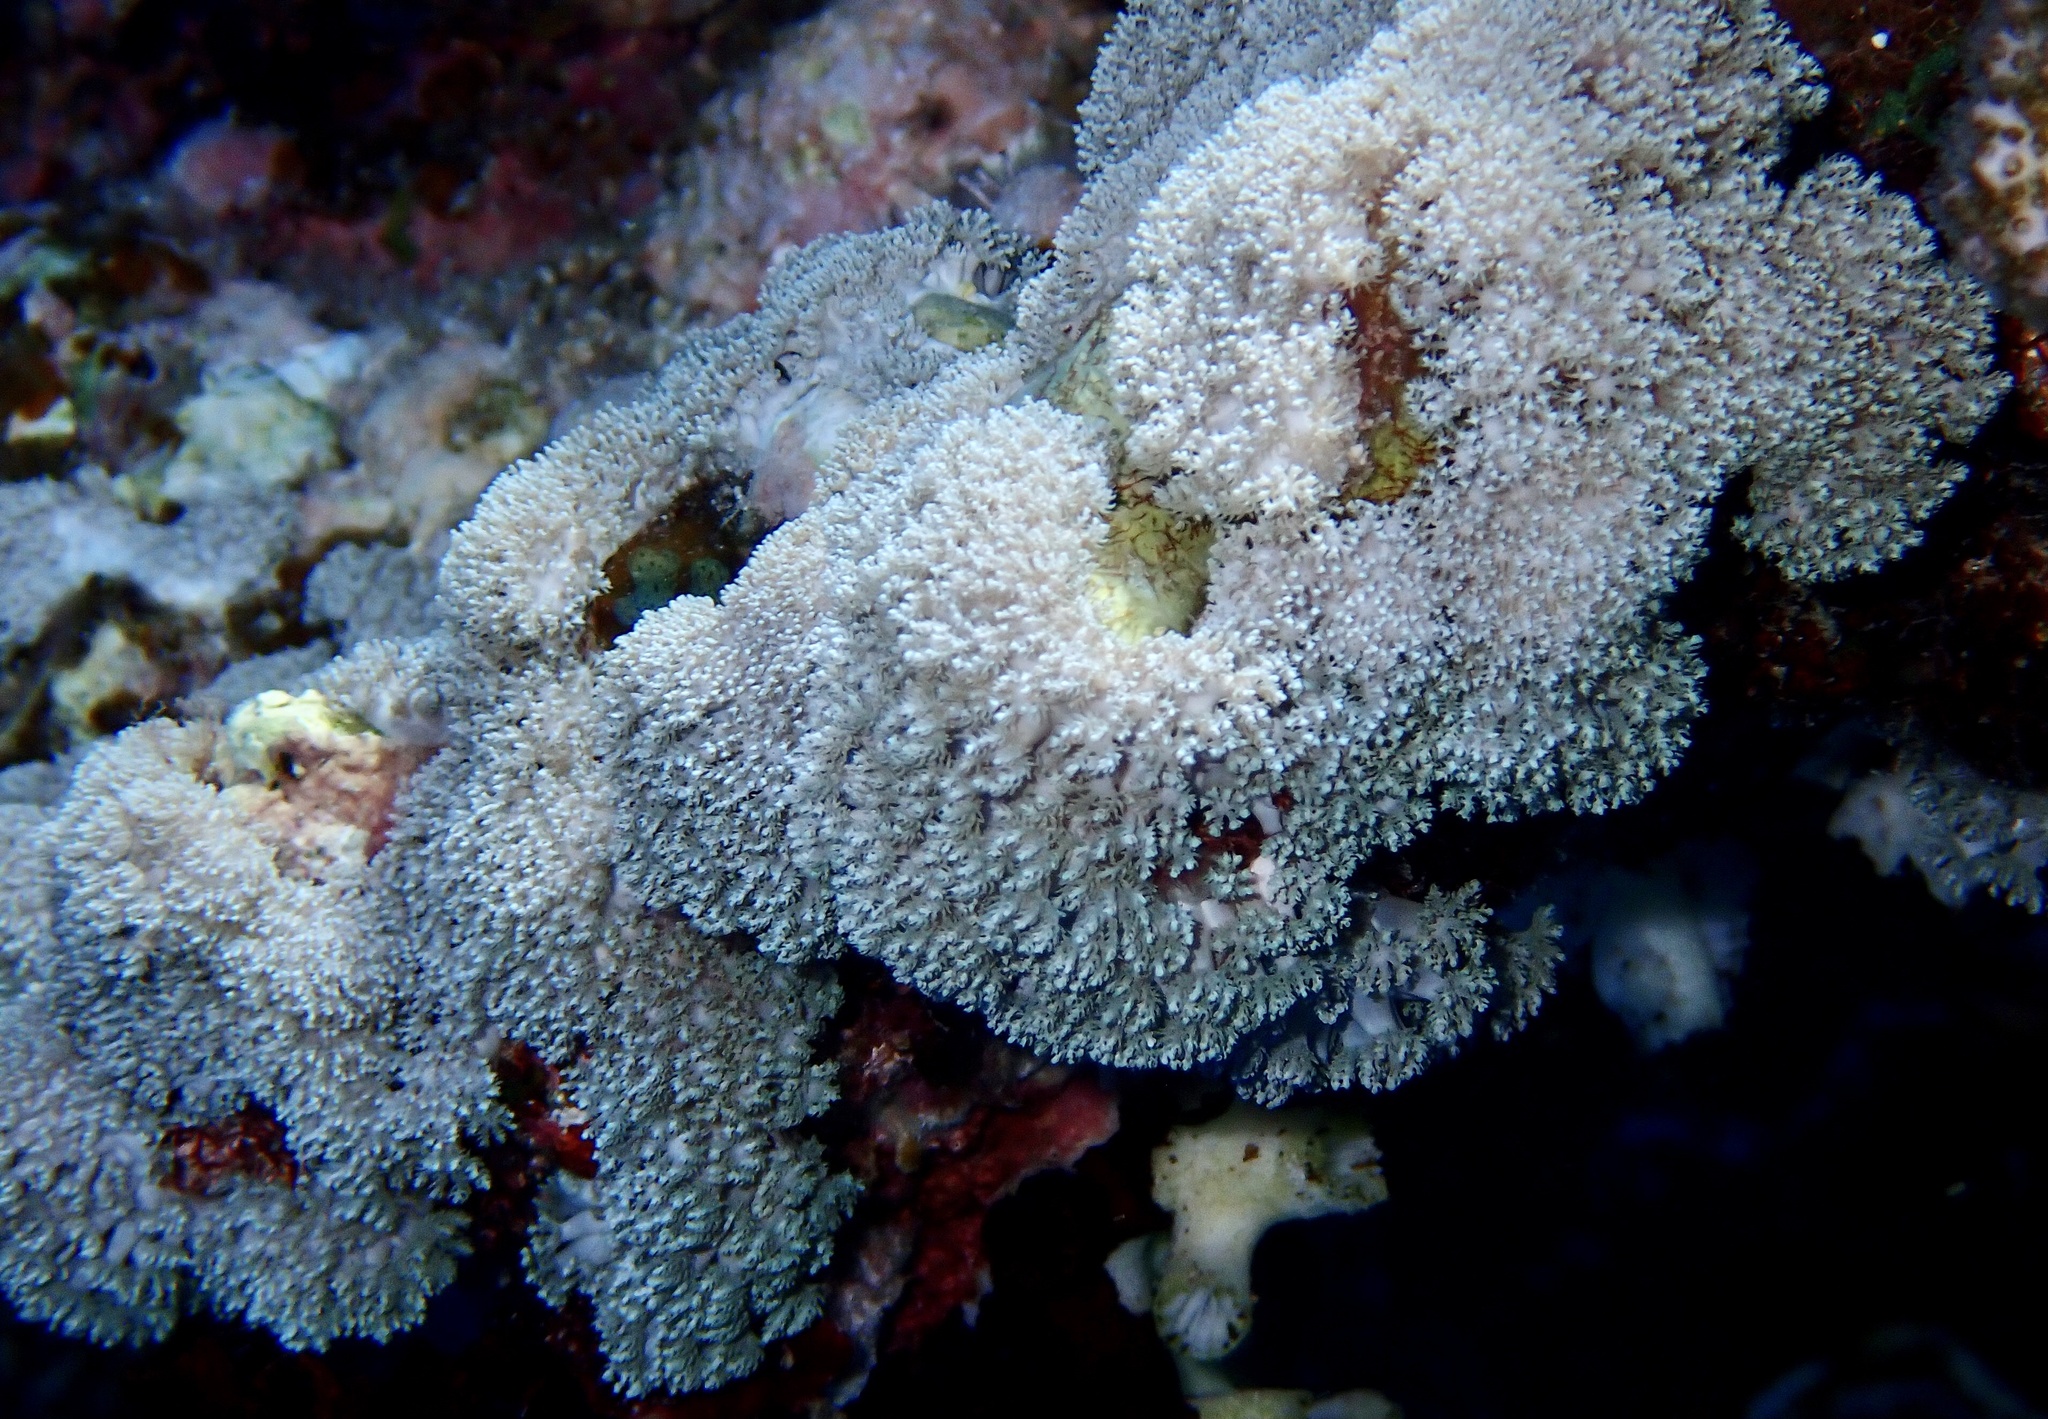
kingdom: Animalia
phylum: Cnidaria
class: Anthozoa
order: Malacalcyonacea
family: Xeniidae
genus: Sympodium
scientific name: Sympodium caeruleum
